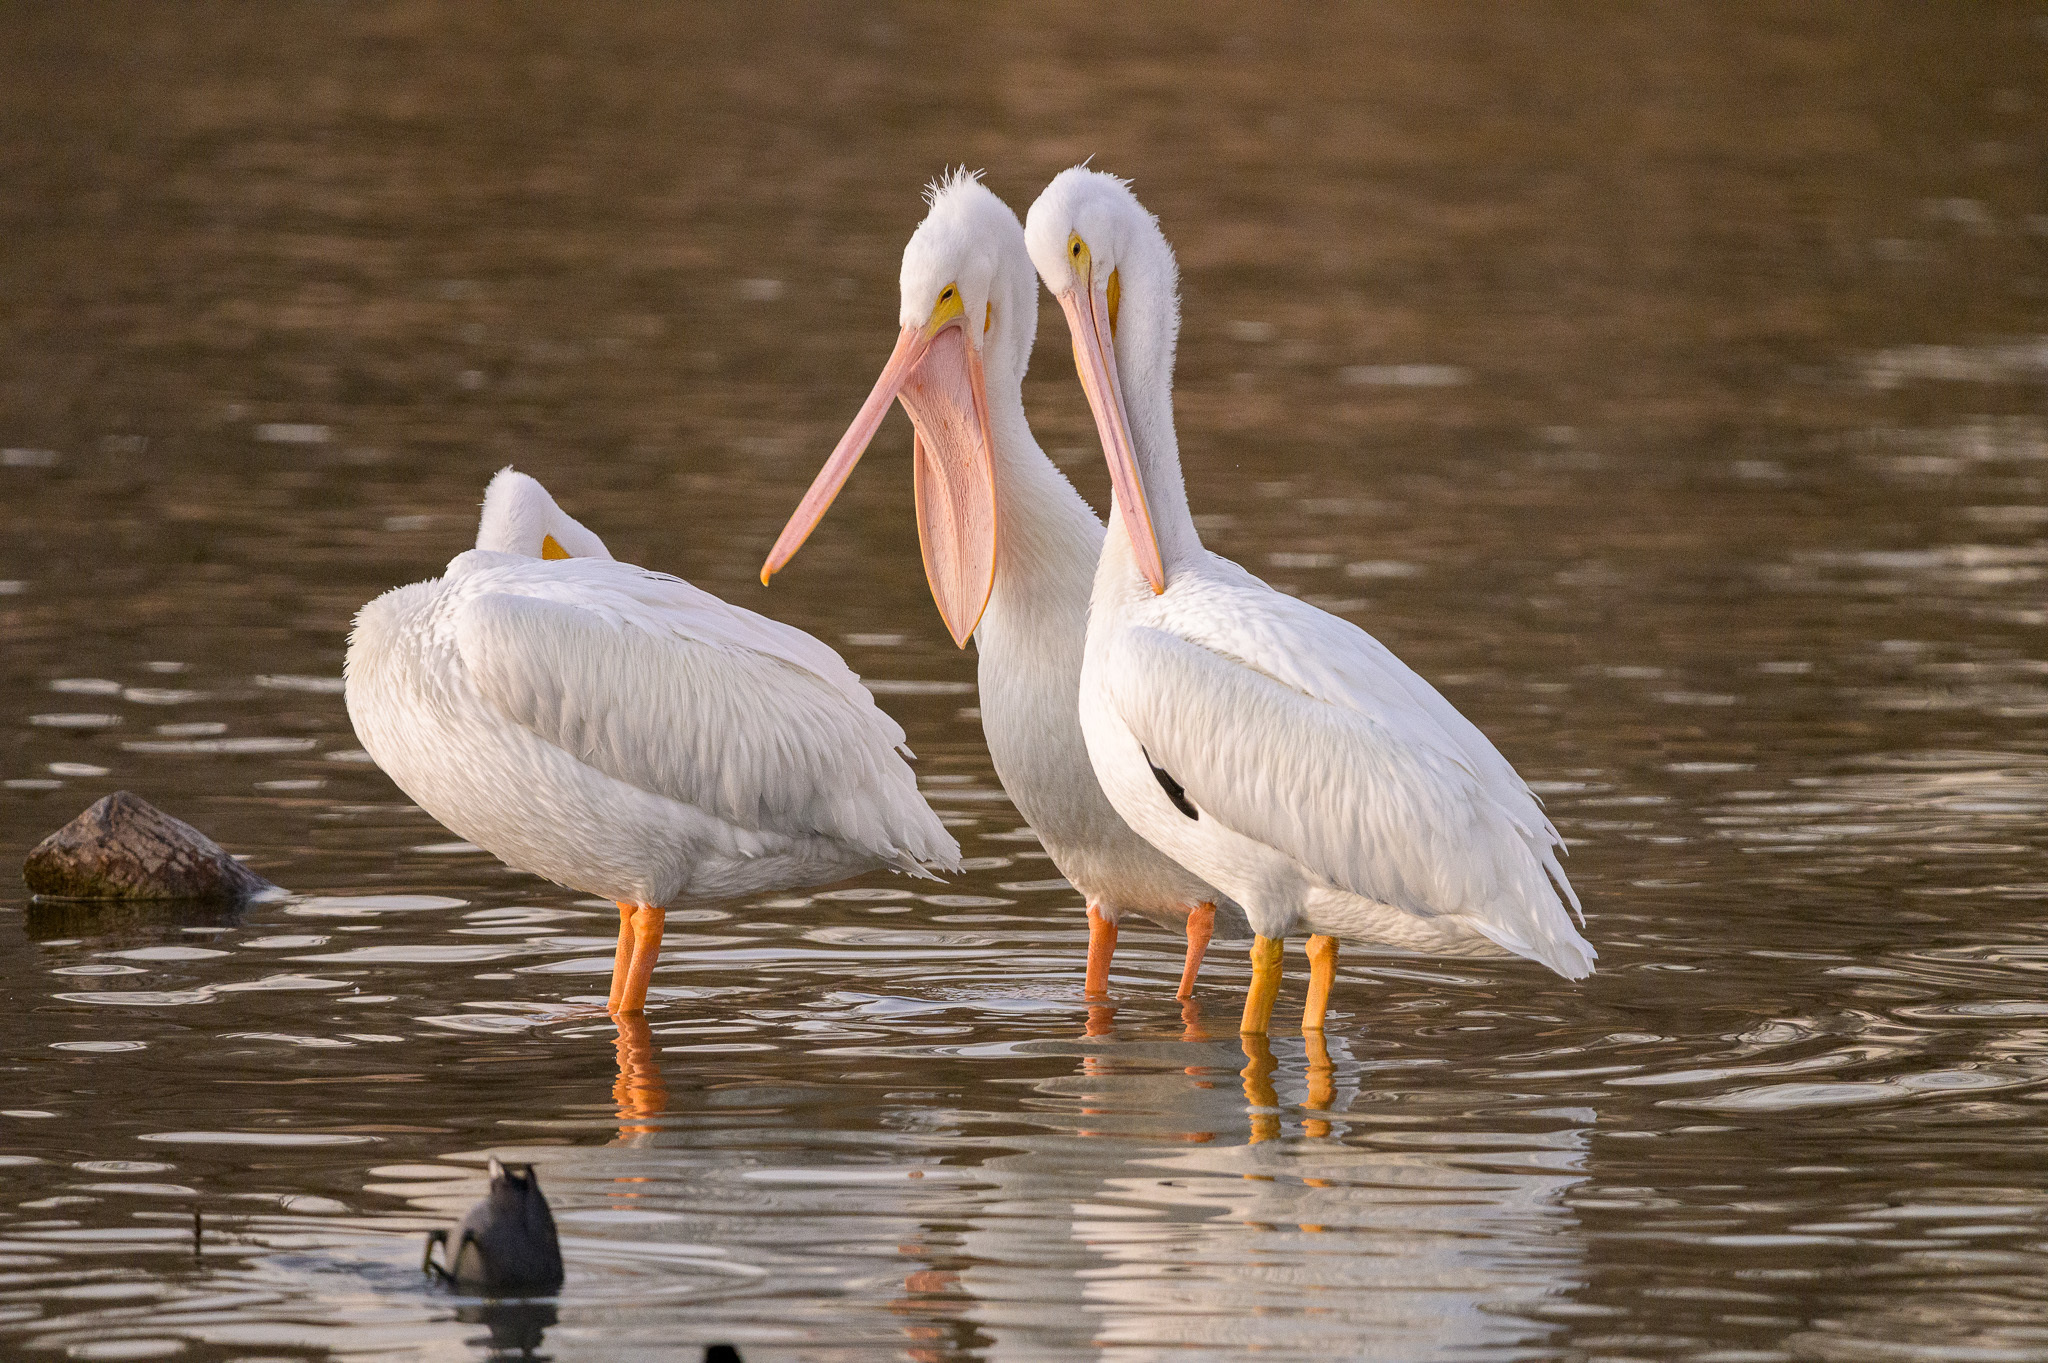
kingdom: Animalia
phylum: Chordata
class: Aves
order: Pelecaniformes
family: Pelecanidae
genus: Pelecanus
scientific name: Pelecanus erythrorhynchos
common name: American white pelican
